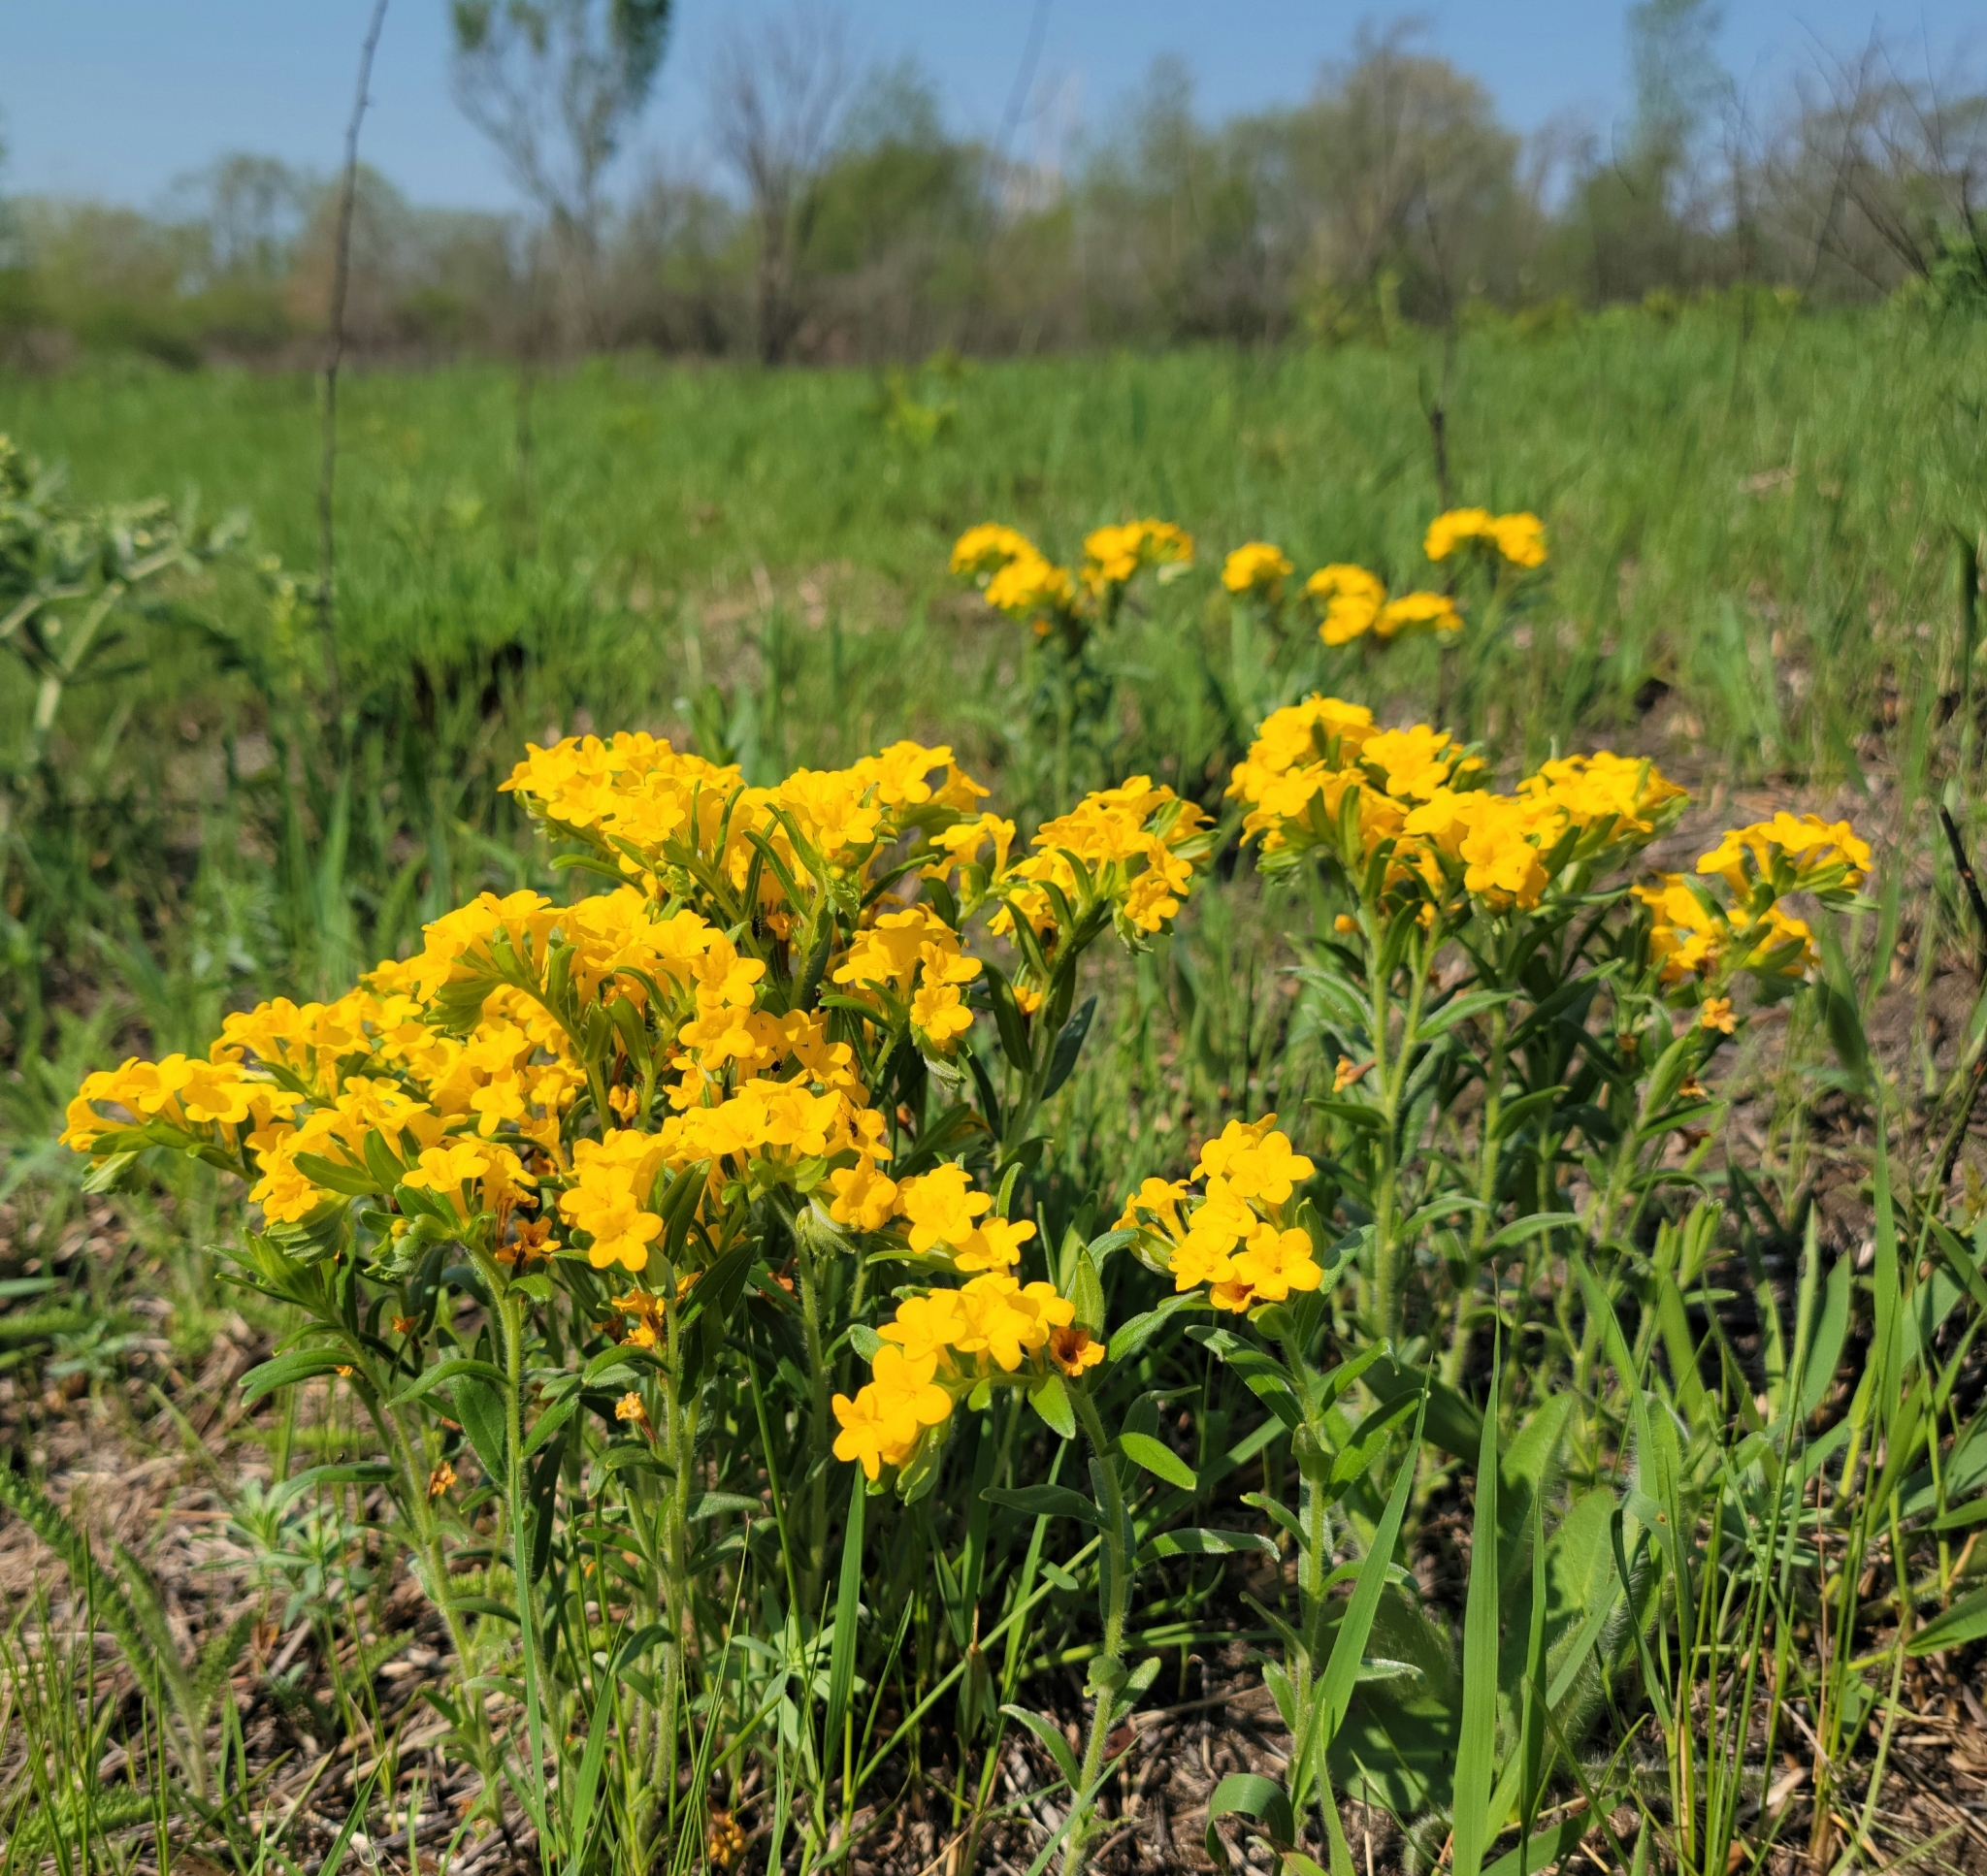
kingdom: Plantae
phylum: Tracheophyta
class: Magnoliopsida
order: Boraginales
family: Boraginaceae
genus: Lithospermum
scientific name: Lithospermum canescens
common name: Hoary puccoon
